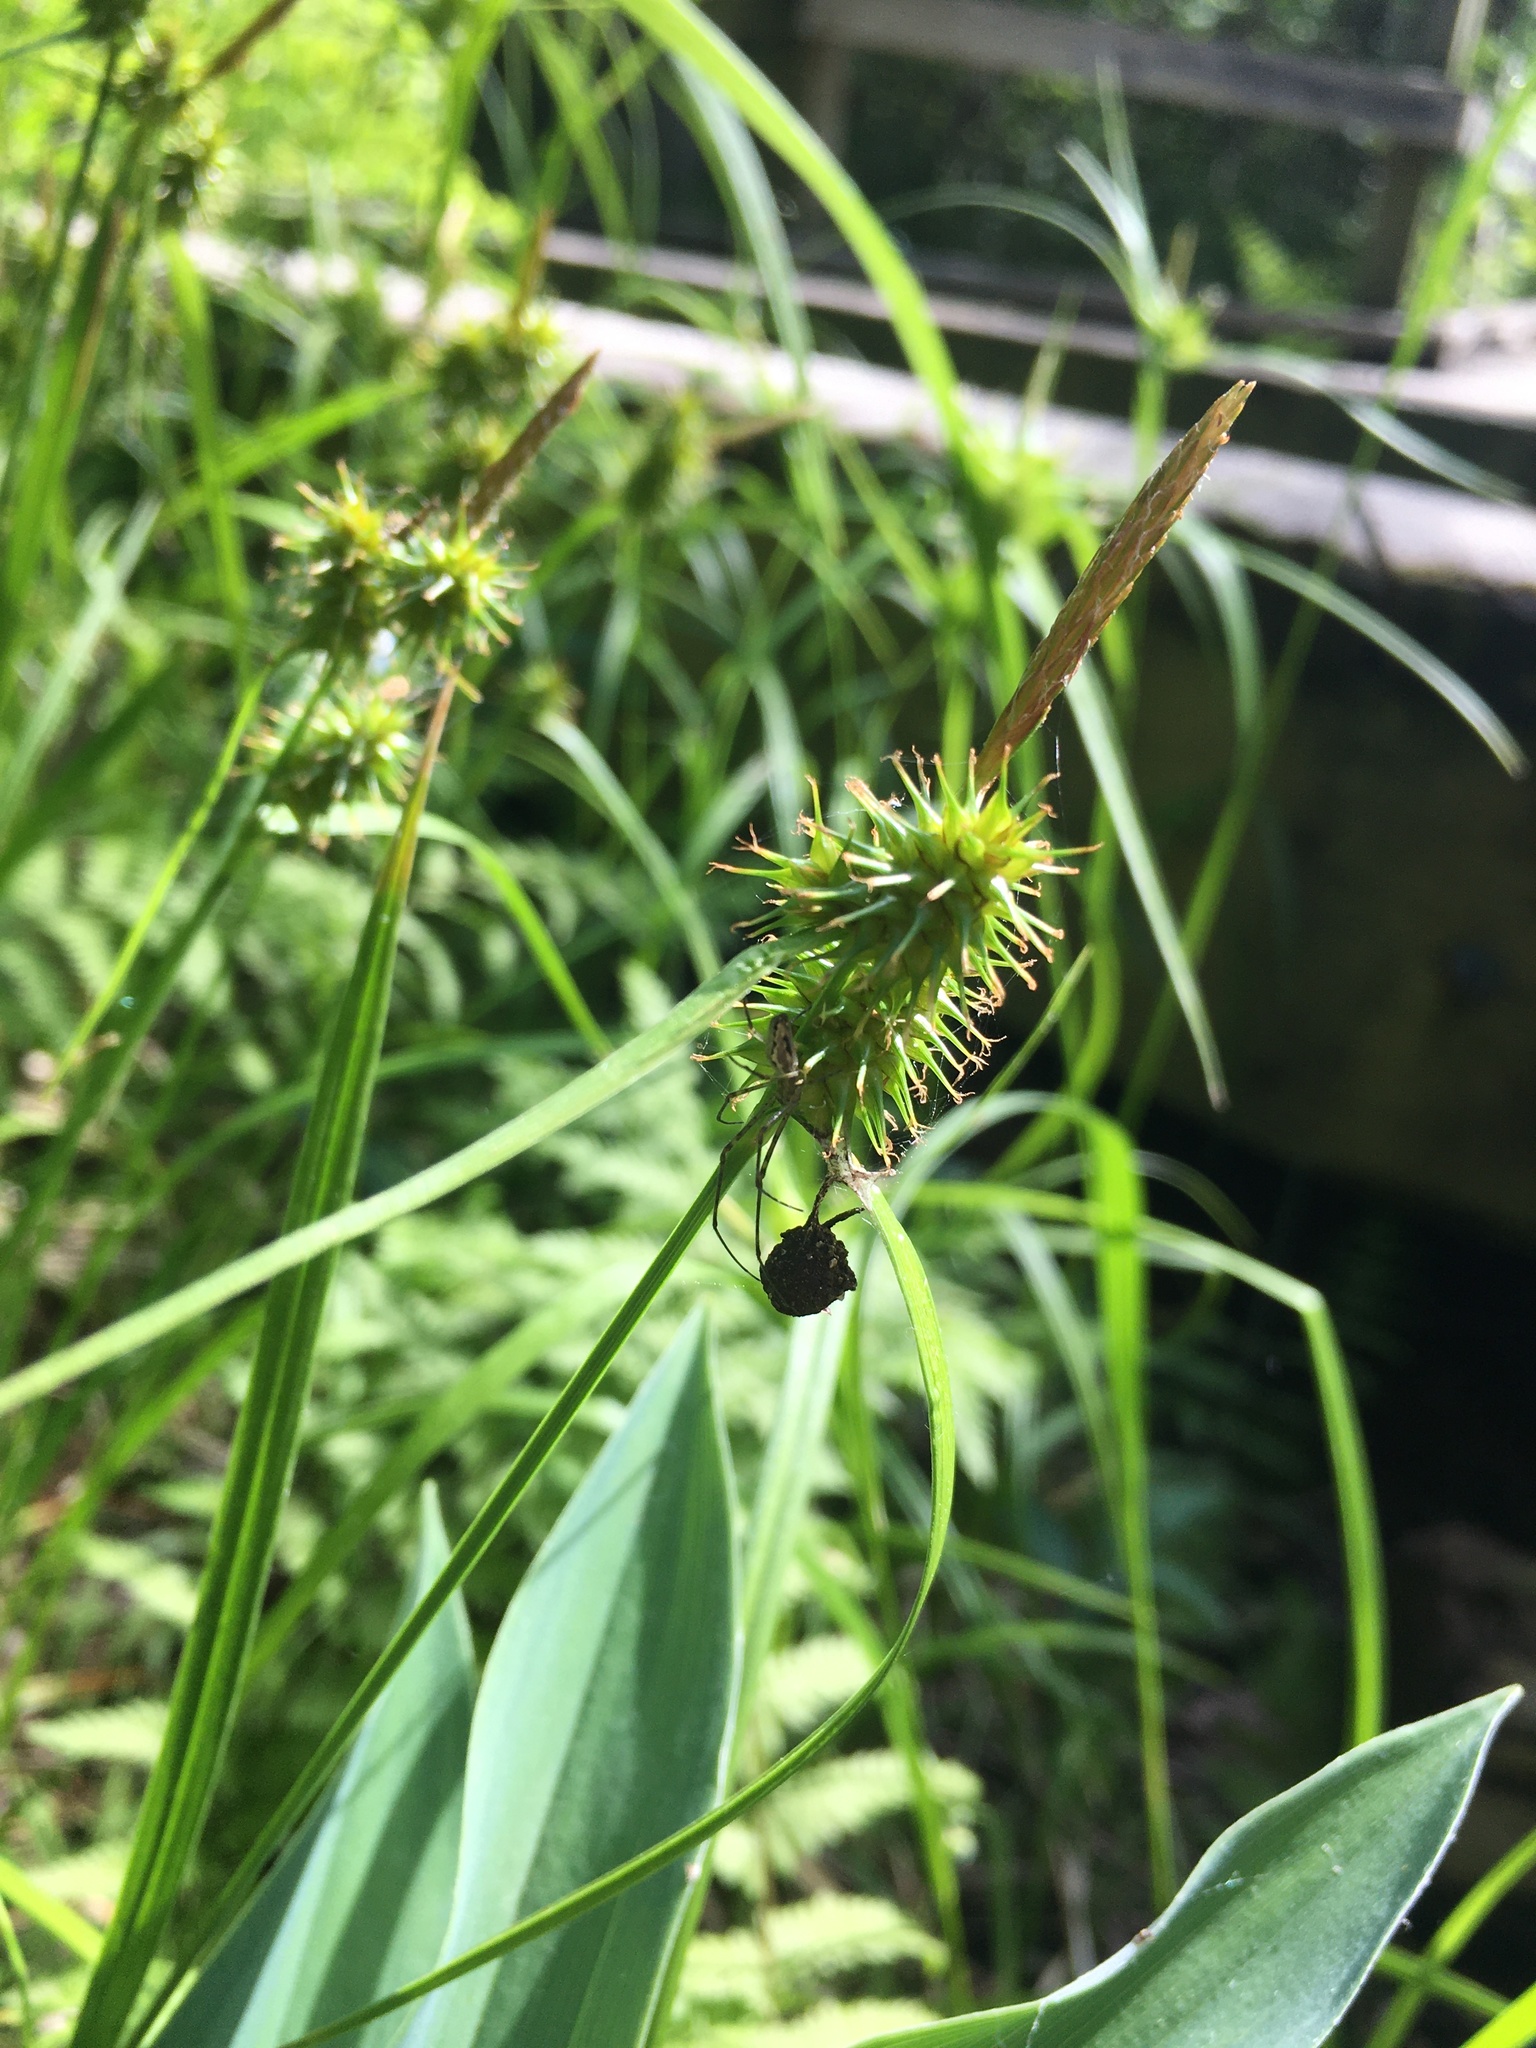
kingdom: Plantae
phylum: Tracheophyta
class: Liliopsida
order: Poales
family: Cyperaceae
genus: Carex
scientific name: Carex flava
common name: Large yellow-sedge
